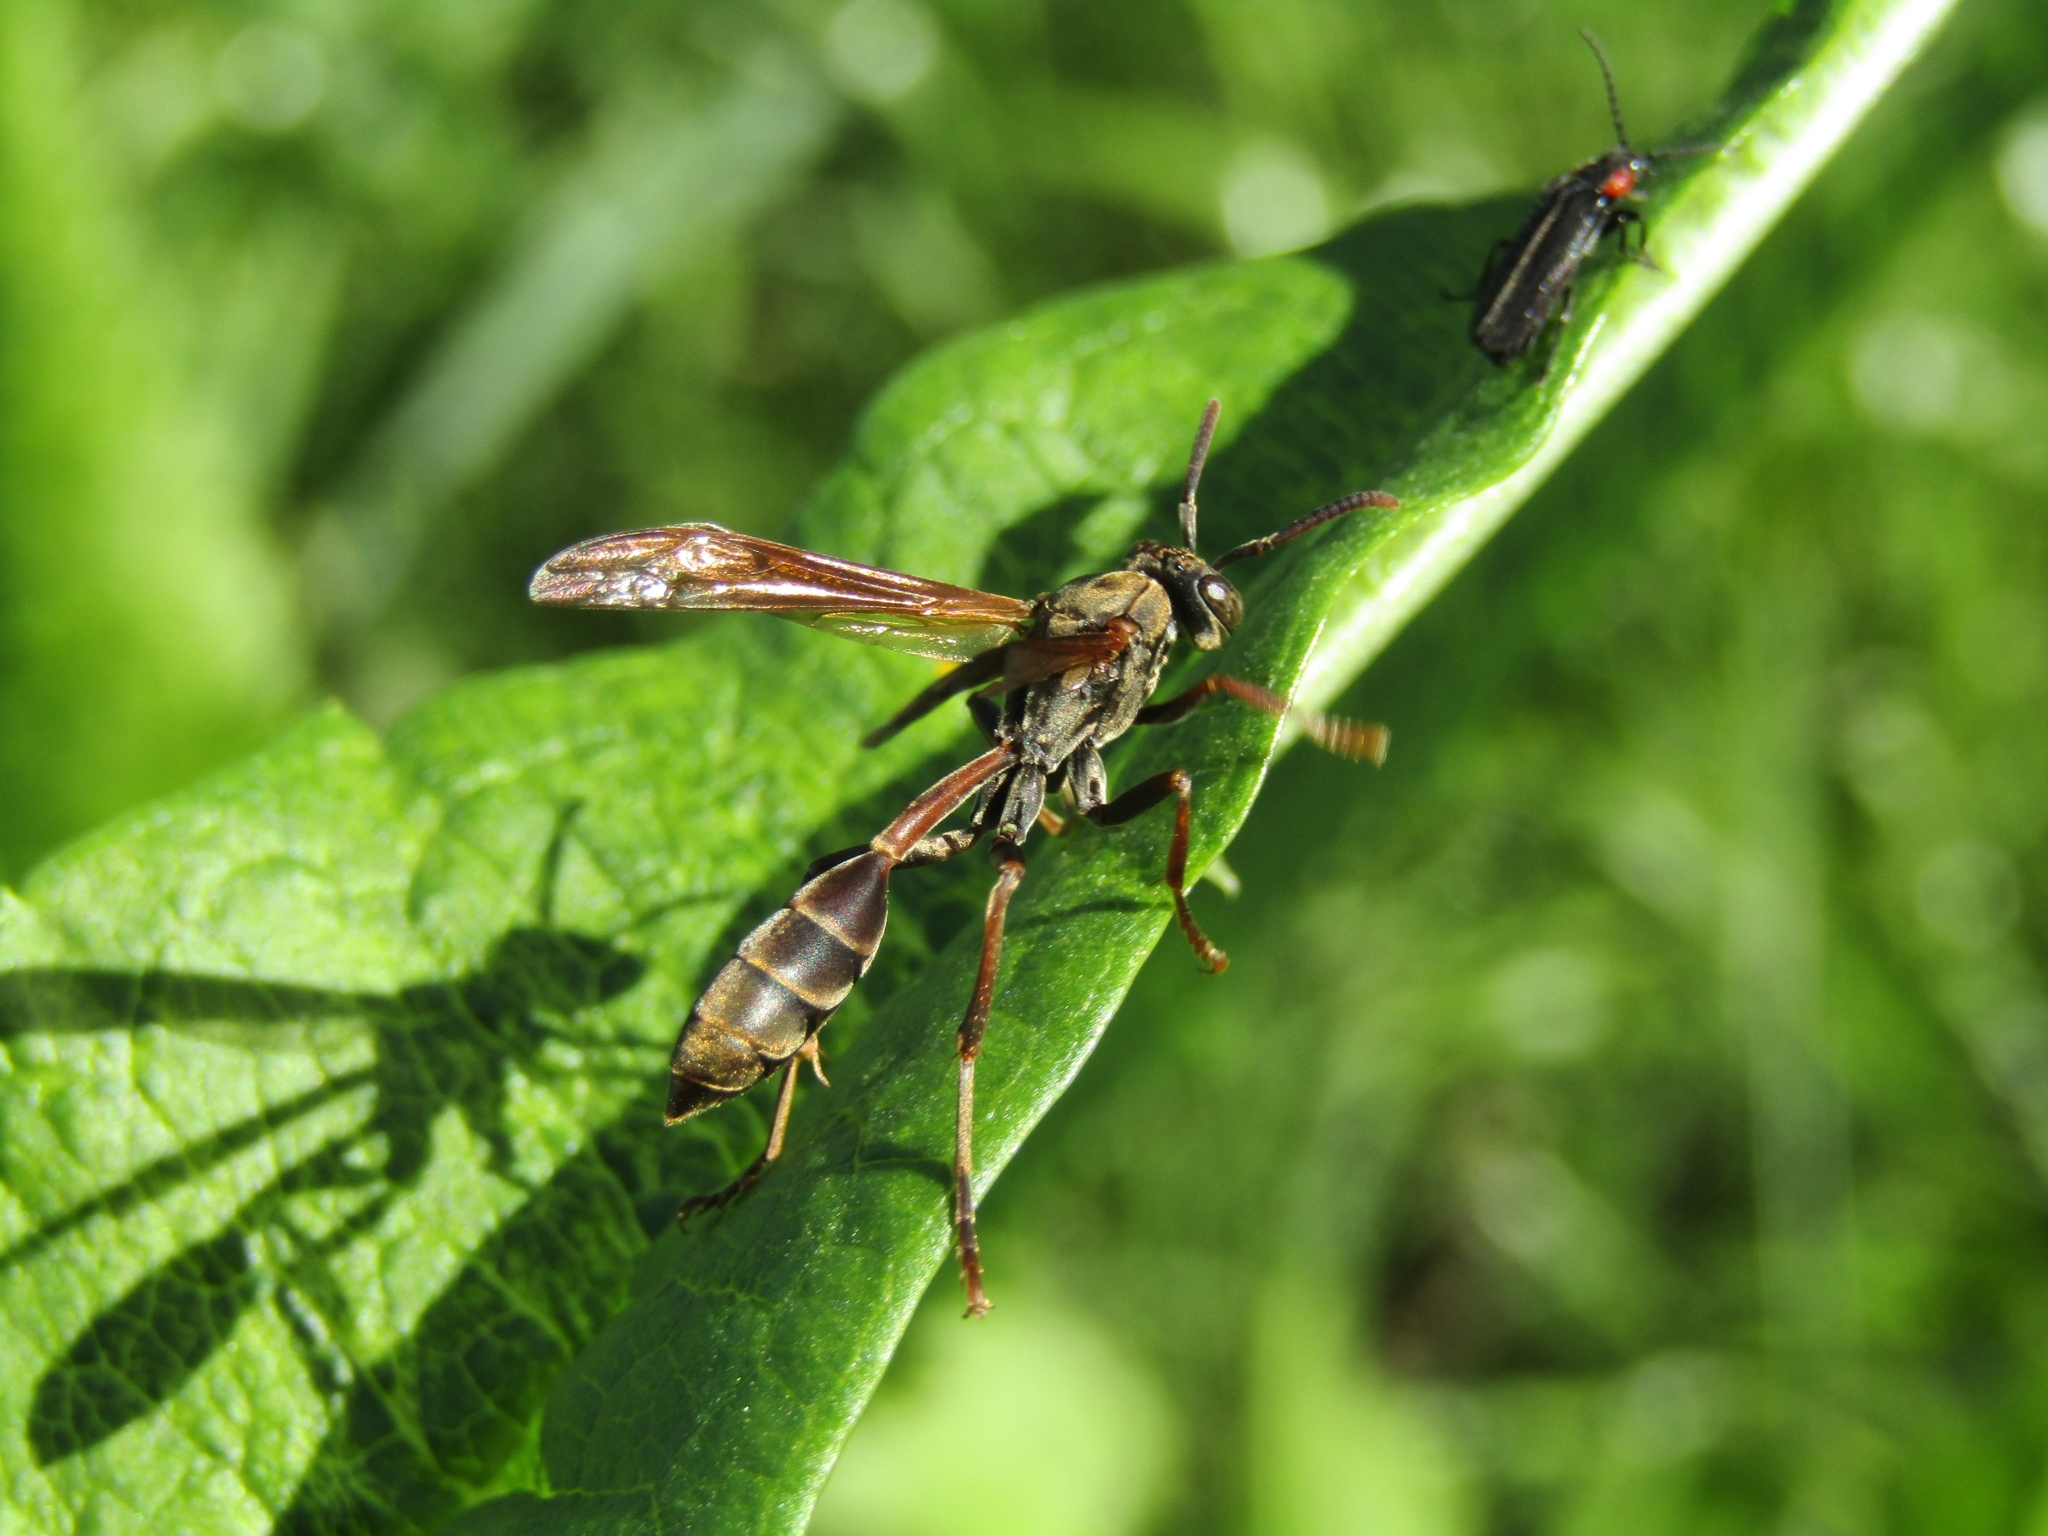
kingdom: Animalia
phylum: Arthropoda
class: Insecta
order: Hymenoptera
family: Vespidae
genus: Mischocyttarus
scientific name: Mischocyttarus drewseni
